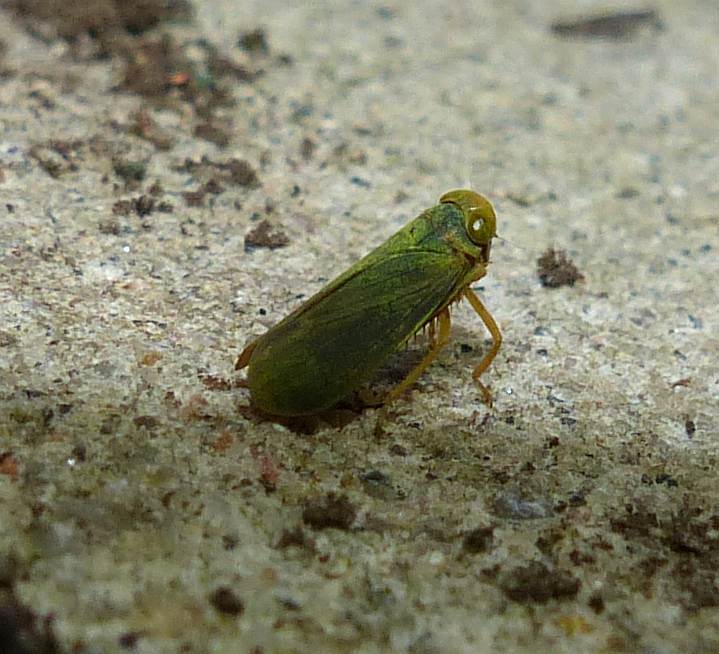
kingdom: Animalia
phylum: Arthropoda
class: Insecta
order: Hemiptera
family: Cicadellidae
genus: Jikradia
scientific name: Jikradia olitoria
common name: Coppery leafhopper
